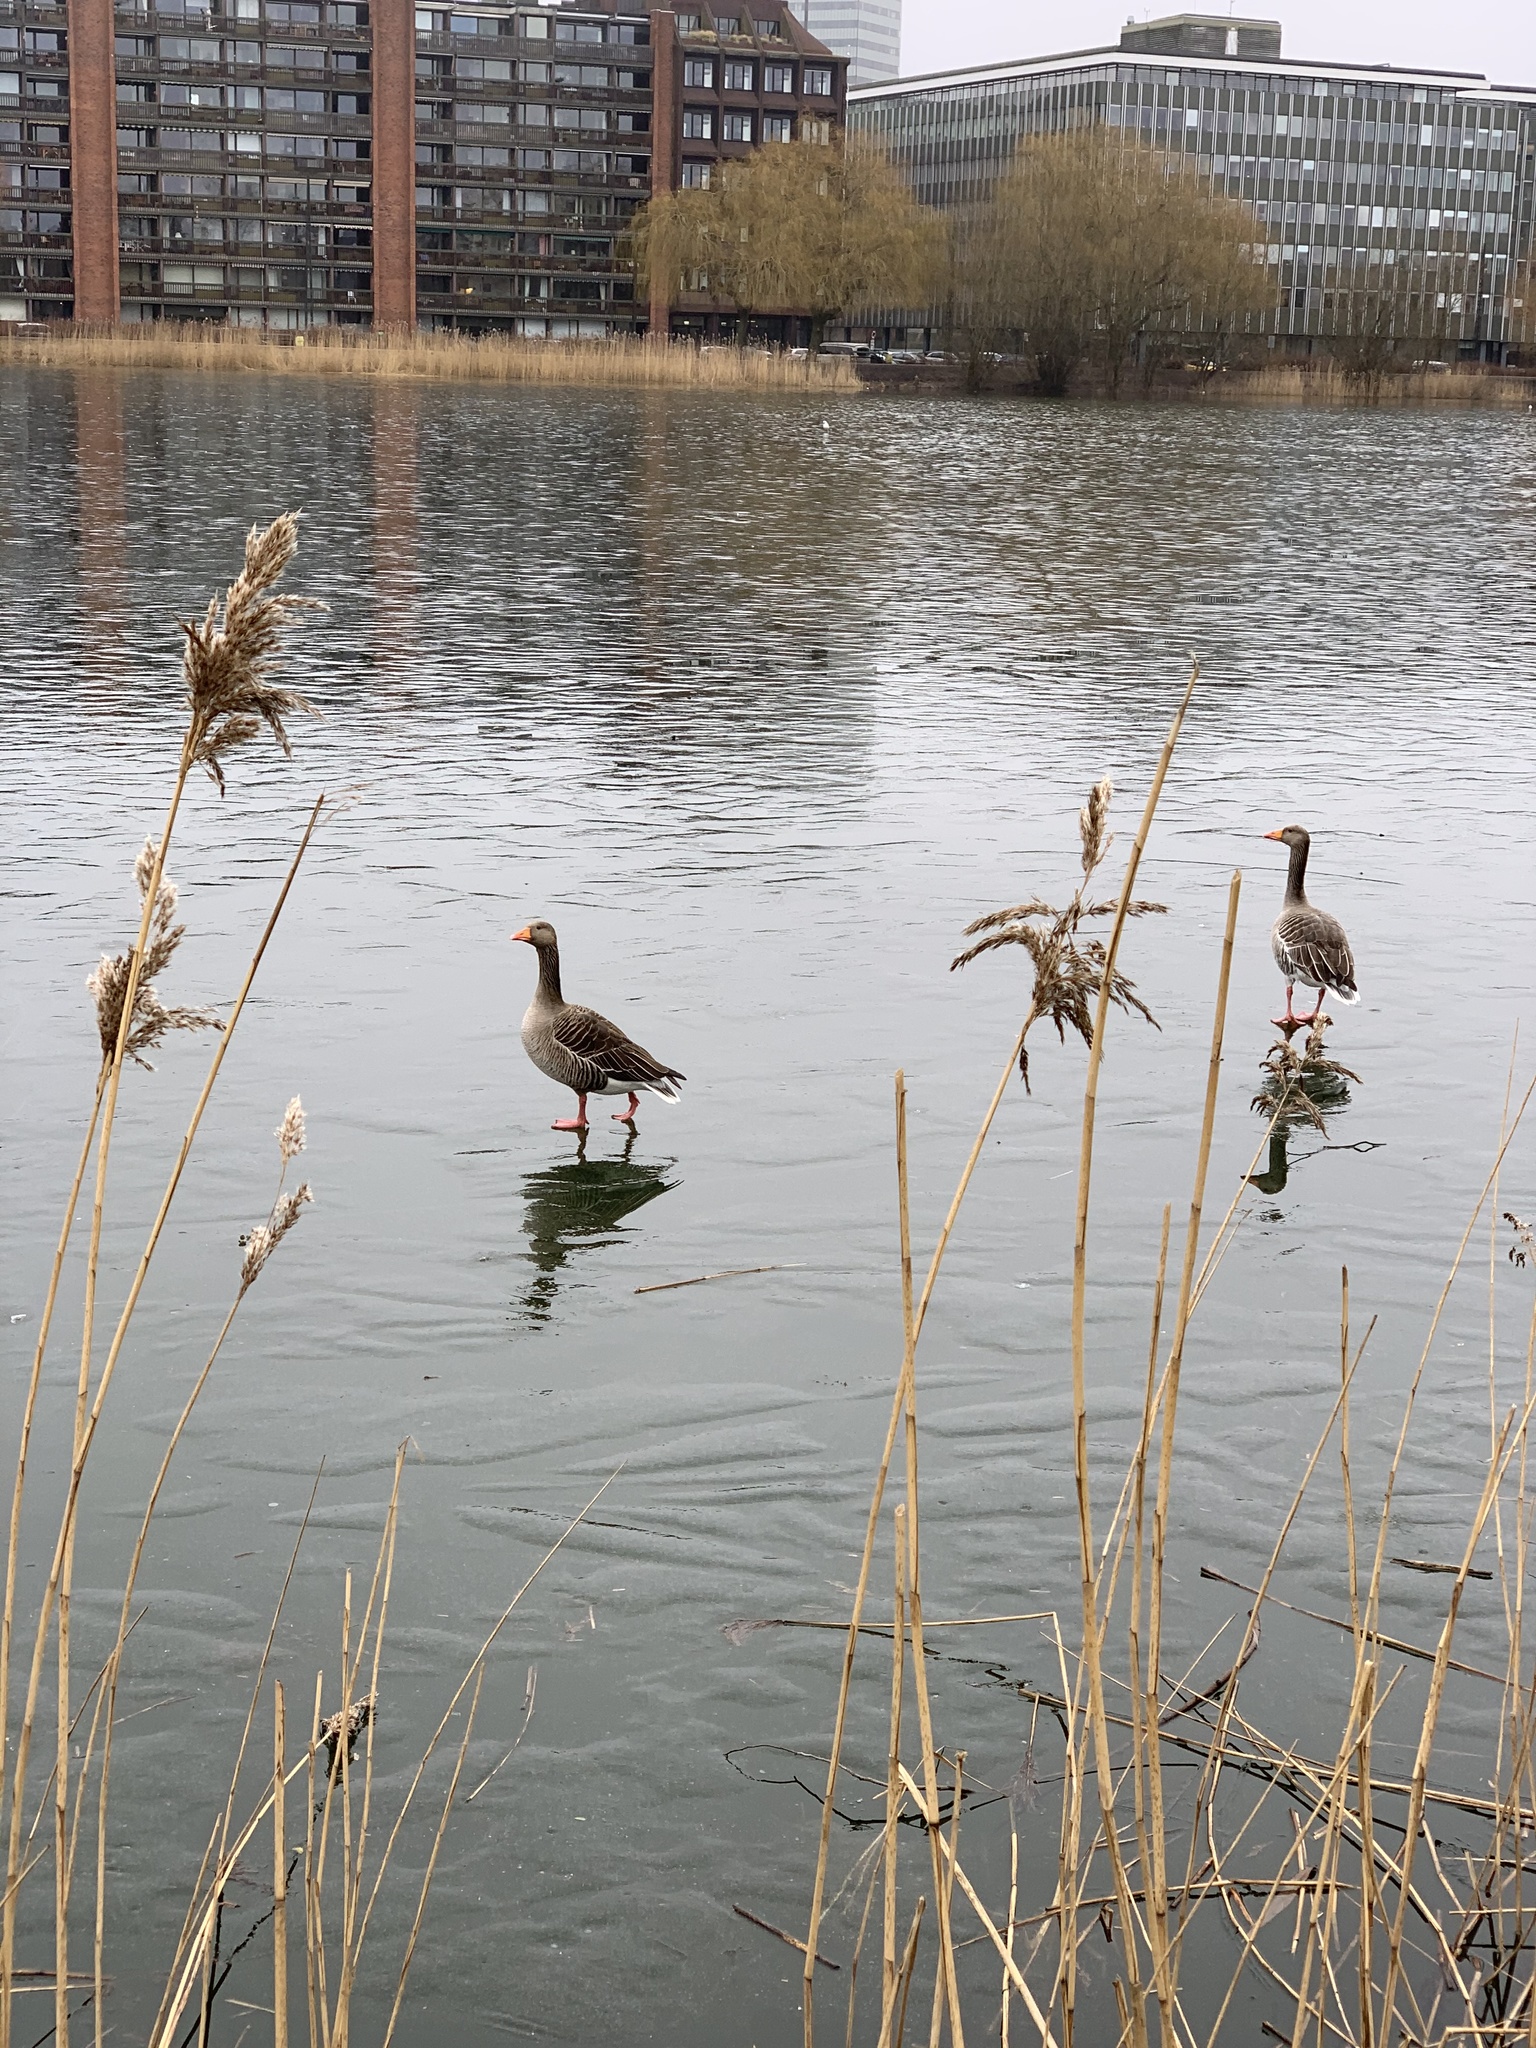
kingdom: Animalia
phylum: Chordata
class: Aves
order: Anseriformes
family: Anatidae
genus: Anser
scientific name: Anser anser
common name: Greylag goose
